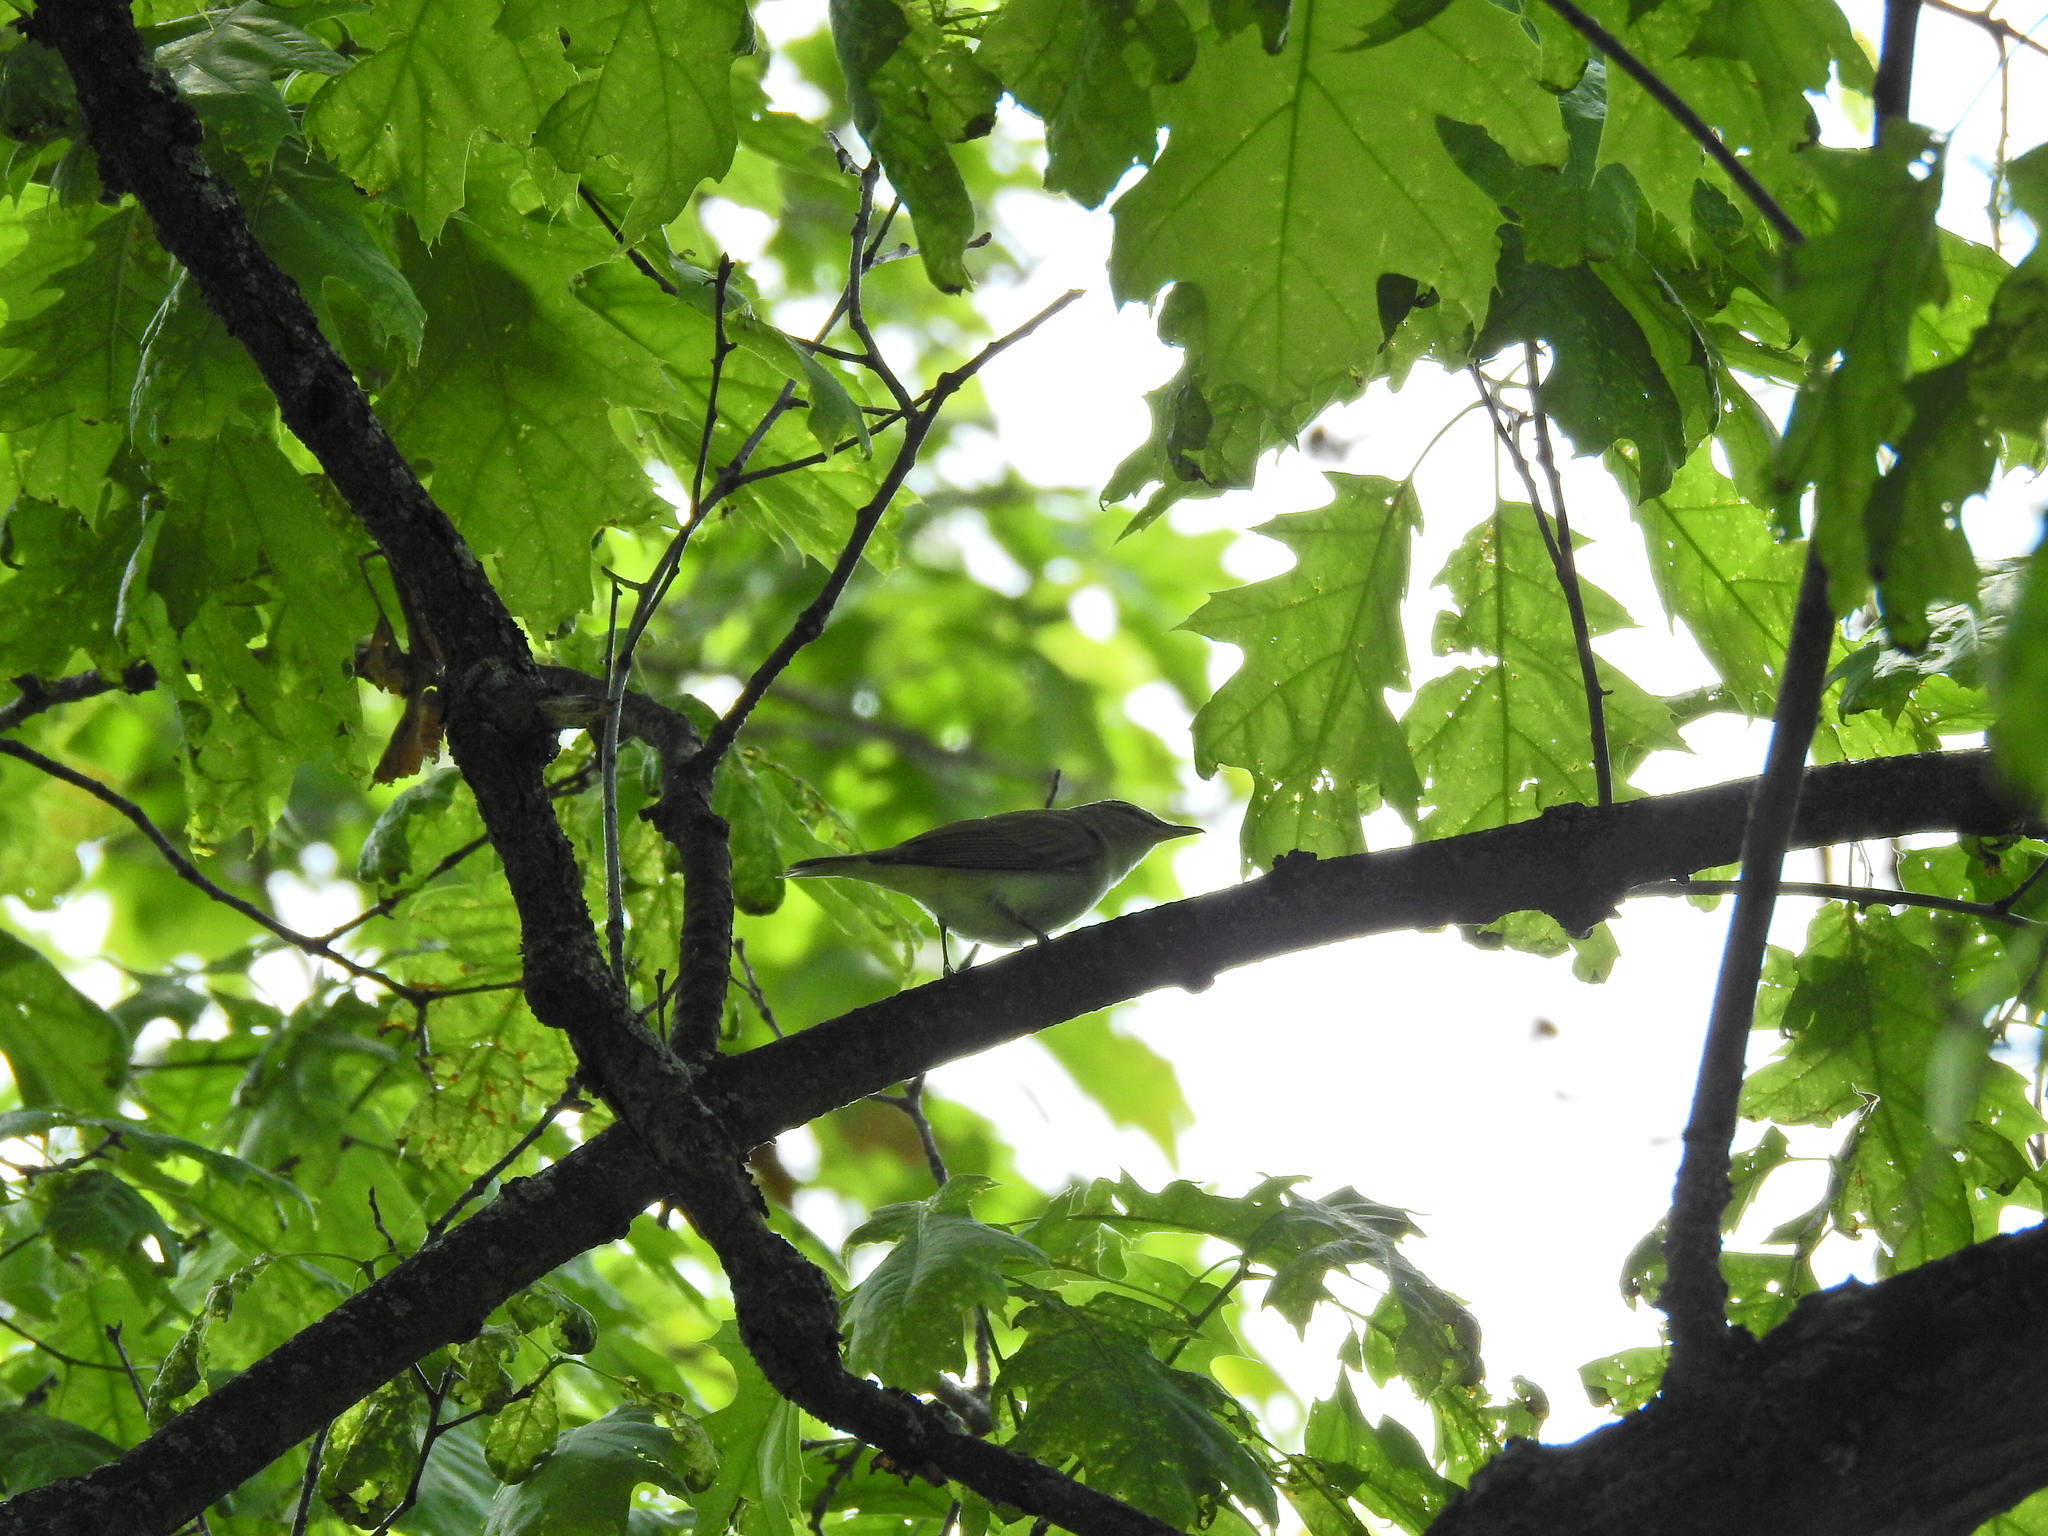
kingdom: Animalia
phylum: Chordata
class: Aves
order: Passeriformes
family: Vireonidae
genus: Vireo
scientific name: Vireo olivaceus
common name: Red-eyed vireo
